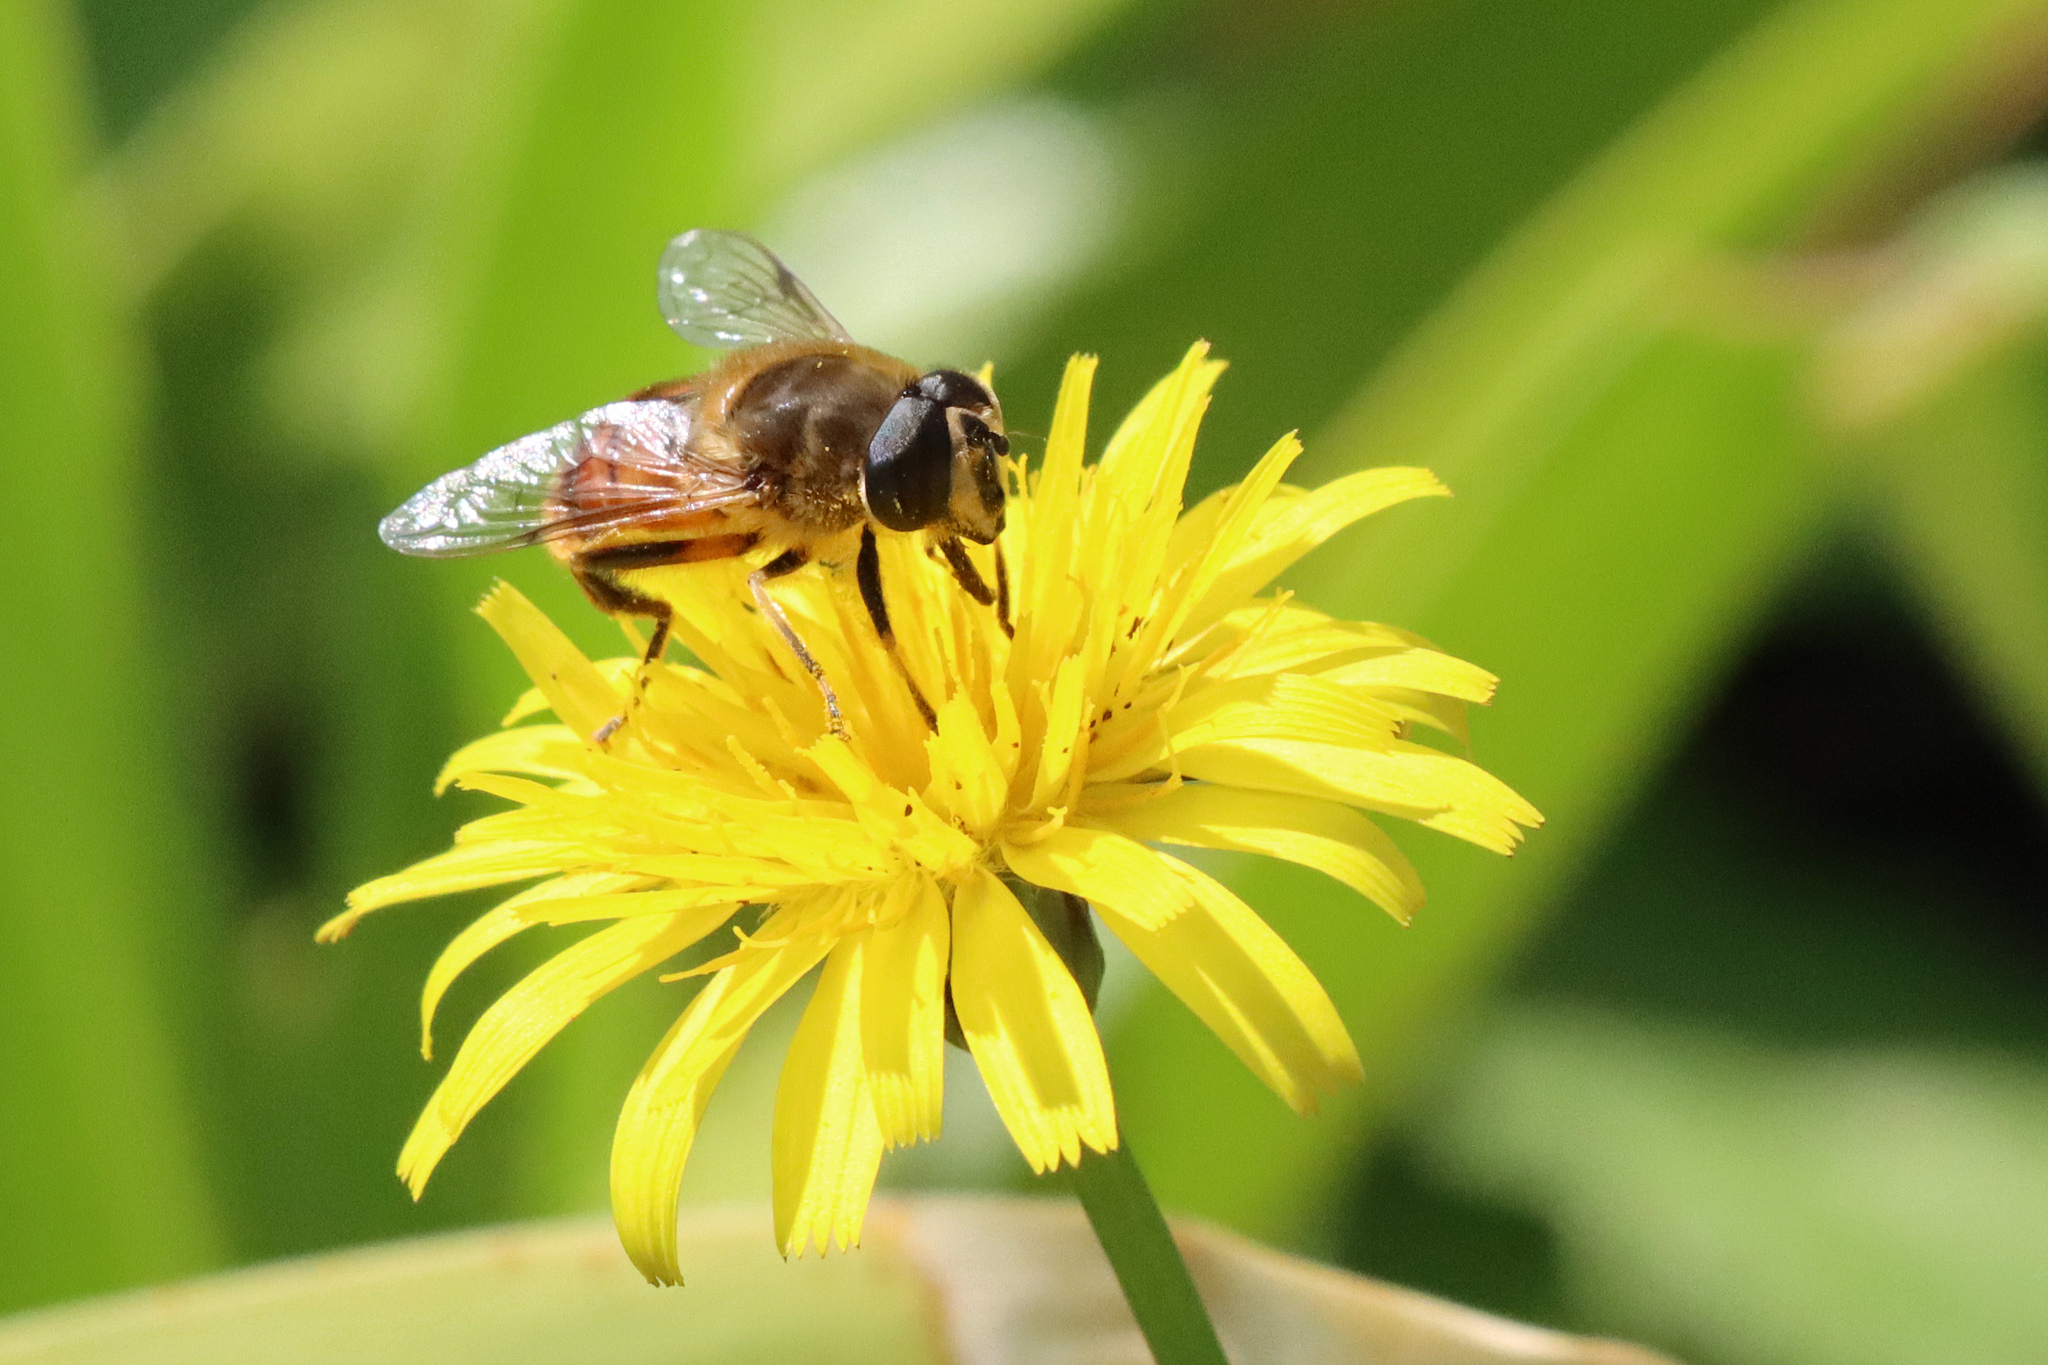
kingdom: Animalia
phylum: Arthropoda
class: Insecta
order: Diptera
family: Syrphidae
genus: Eristalis
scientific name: Eristalis tenax
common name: Drone fly
